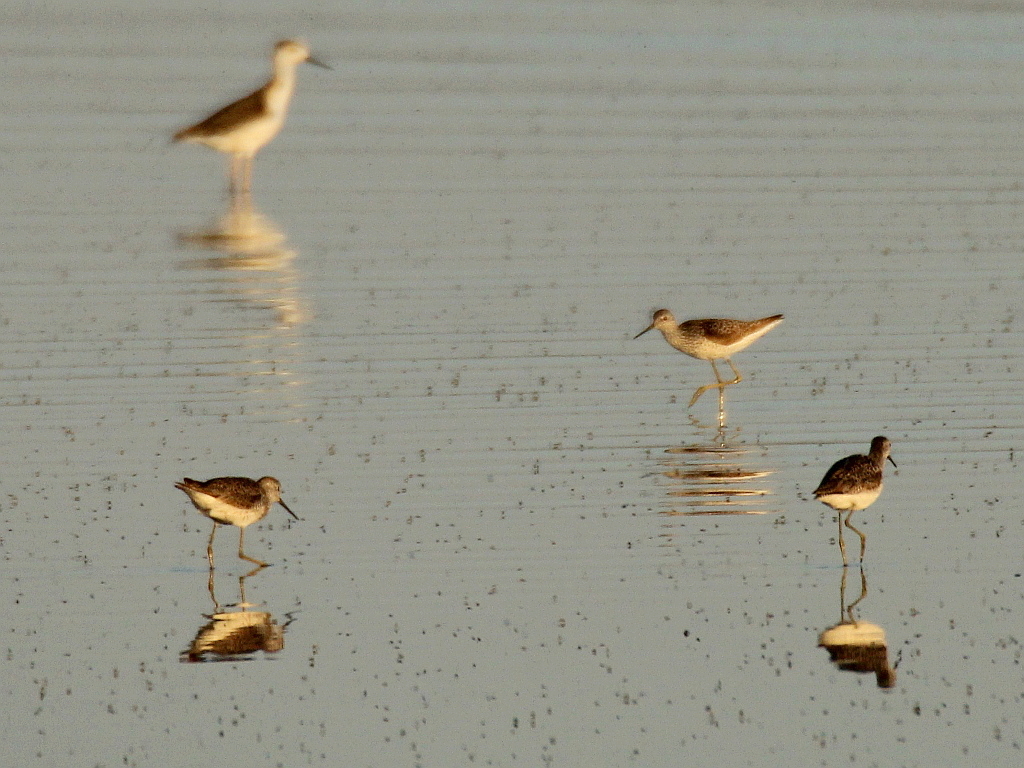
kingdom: Animalia
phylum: Chordata
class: Aves
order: Charadriiformes
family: Scolopacidae
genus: Tringa
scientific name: Tringa stagnatilis
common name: Marsh sandpiper
